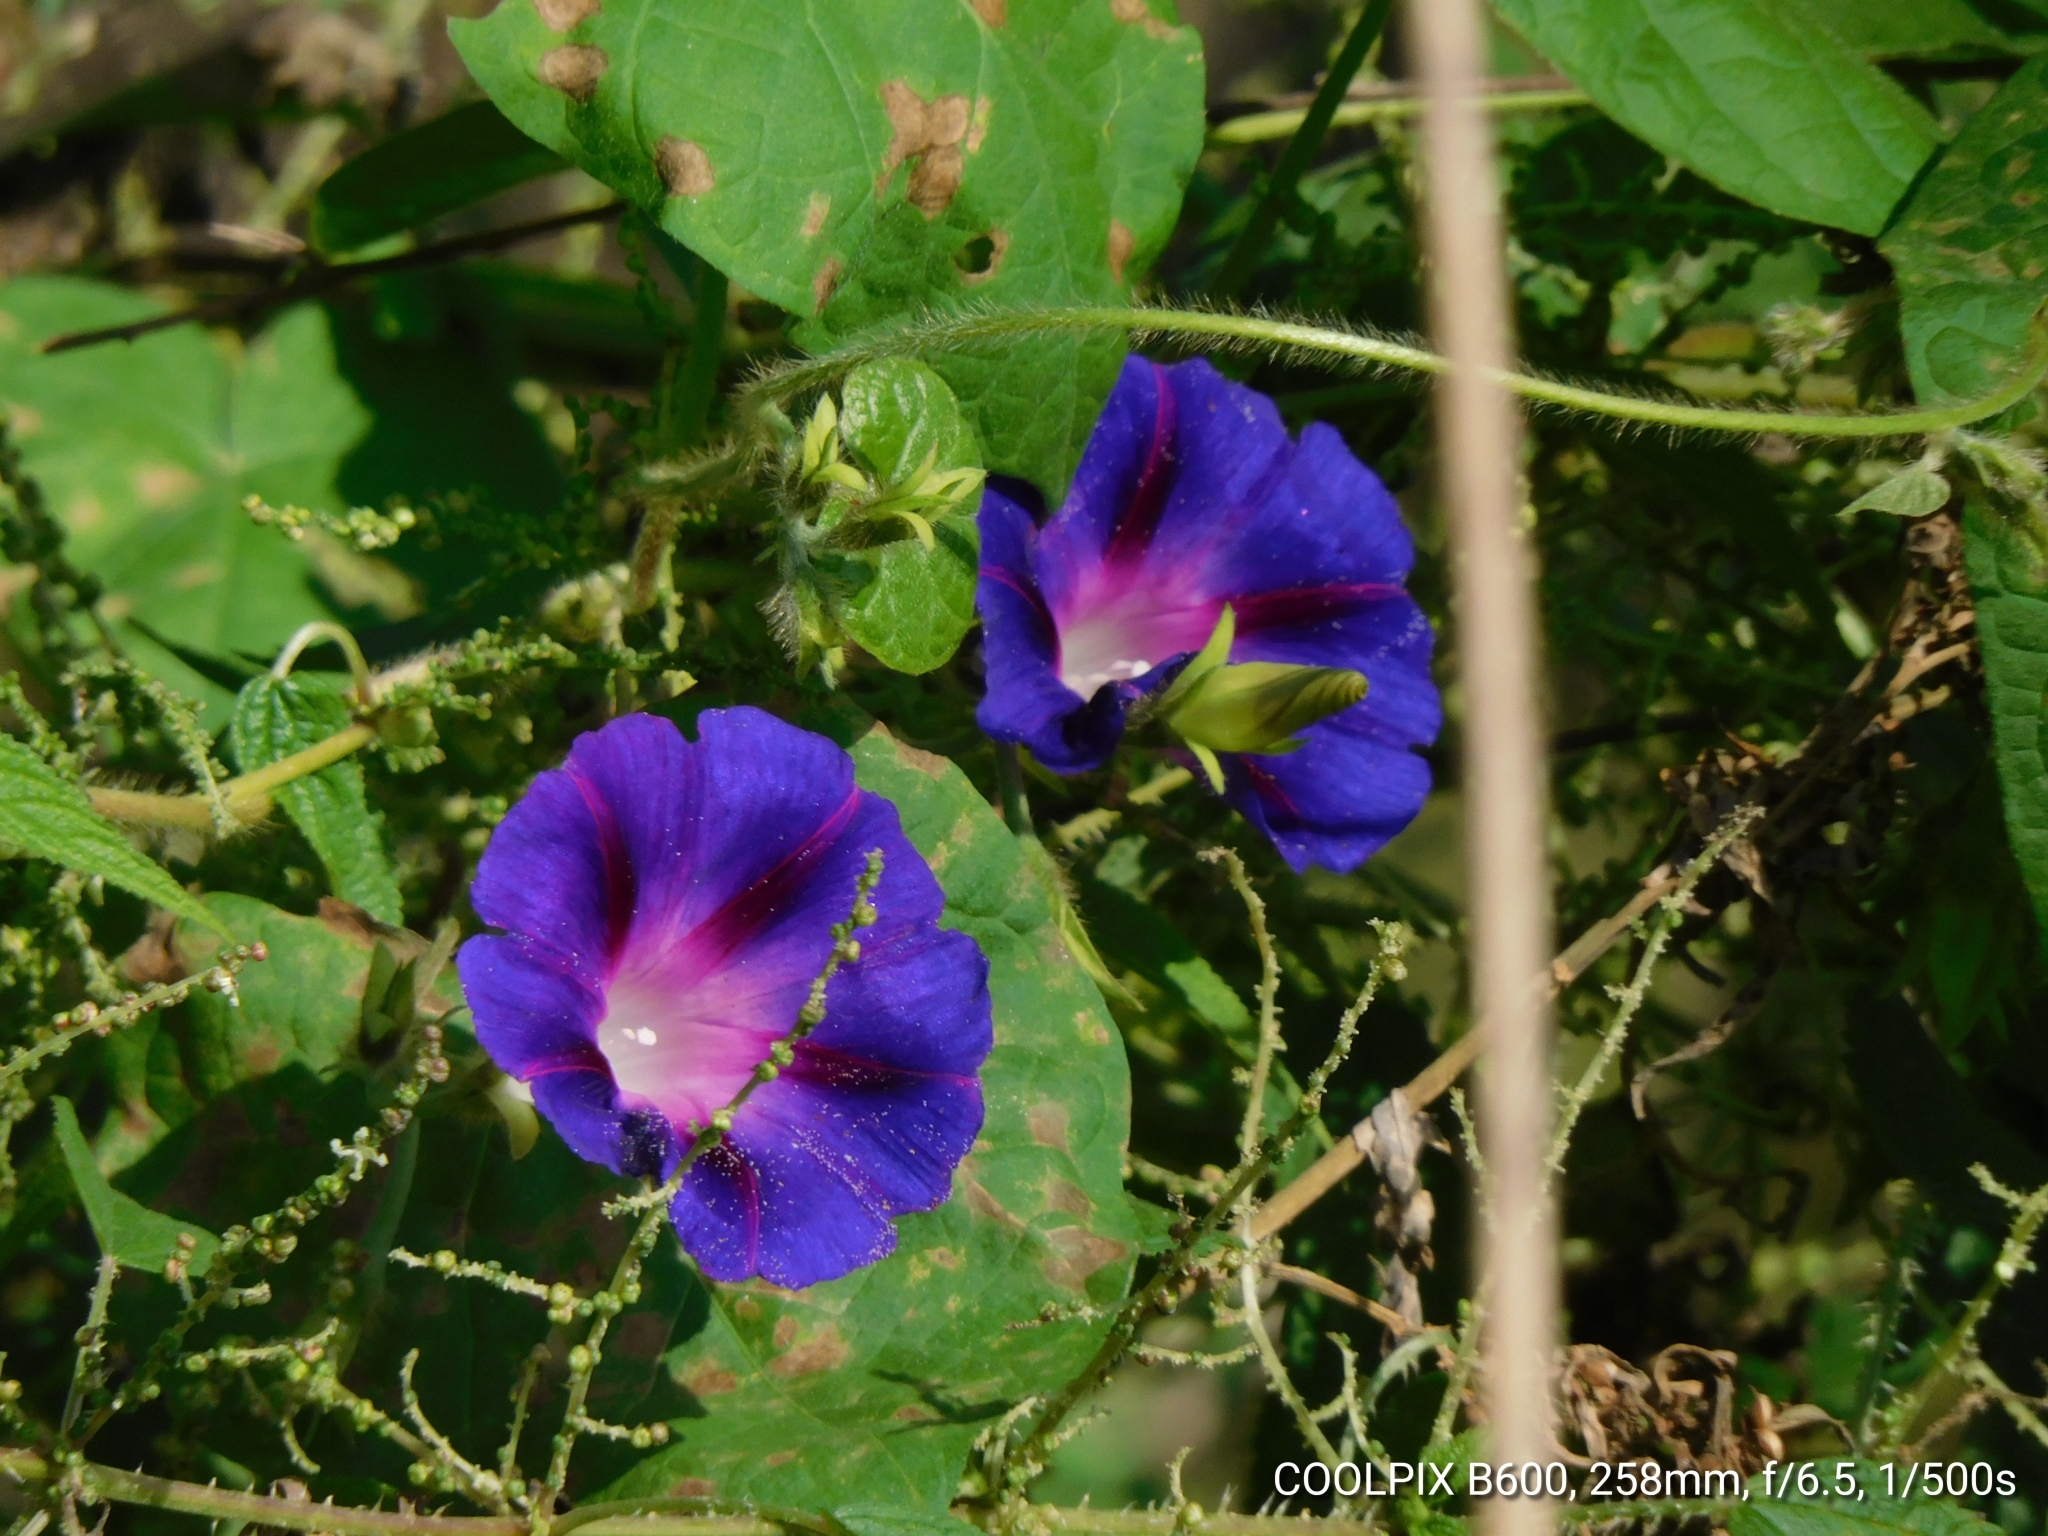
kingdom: Plantae
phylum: Tracheophyta
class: Magnoliopsida
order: Solanales
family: Convolvulaceae
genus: Ipomoea
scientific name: Ipomoea purpurea
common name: Common morning-glory
